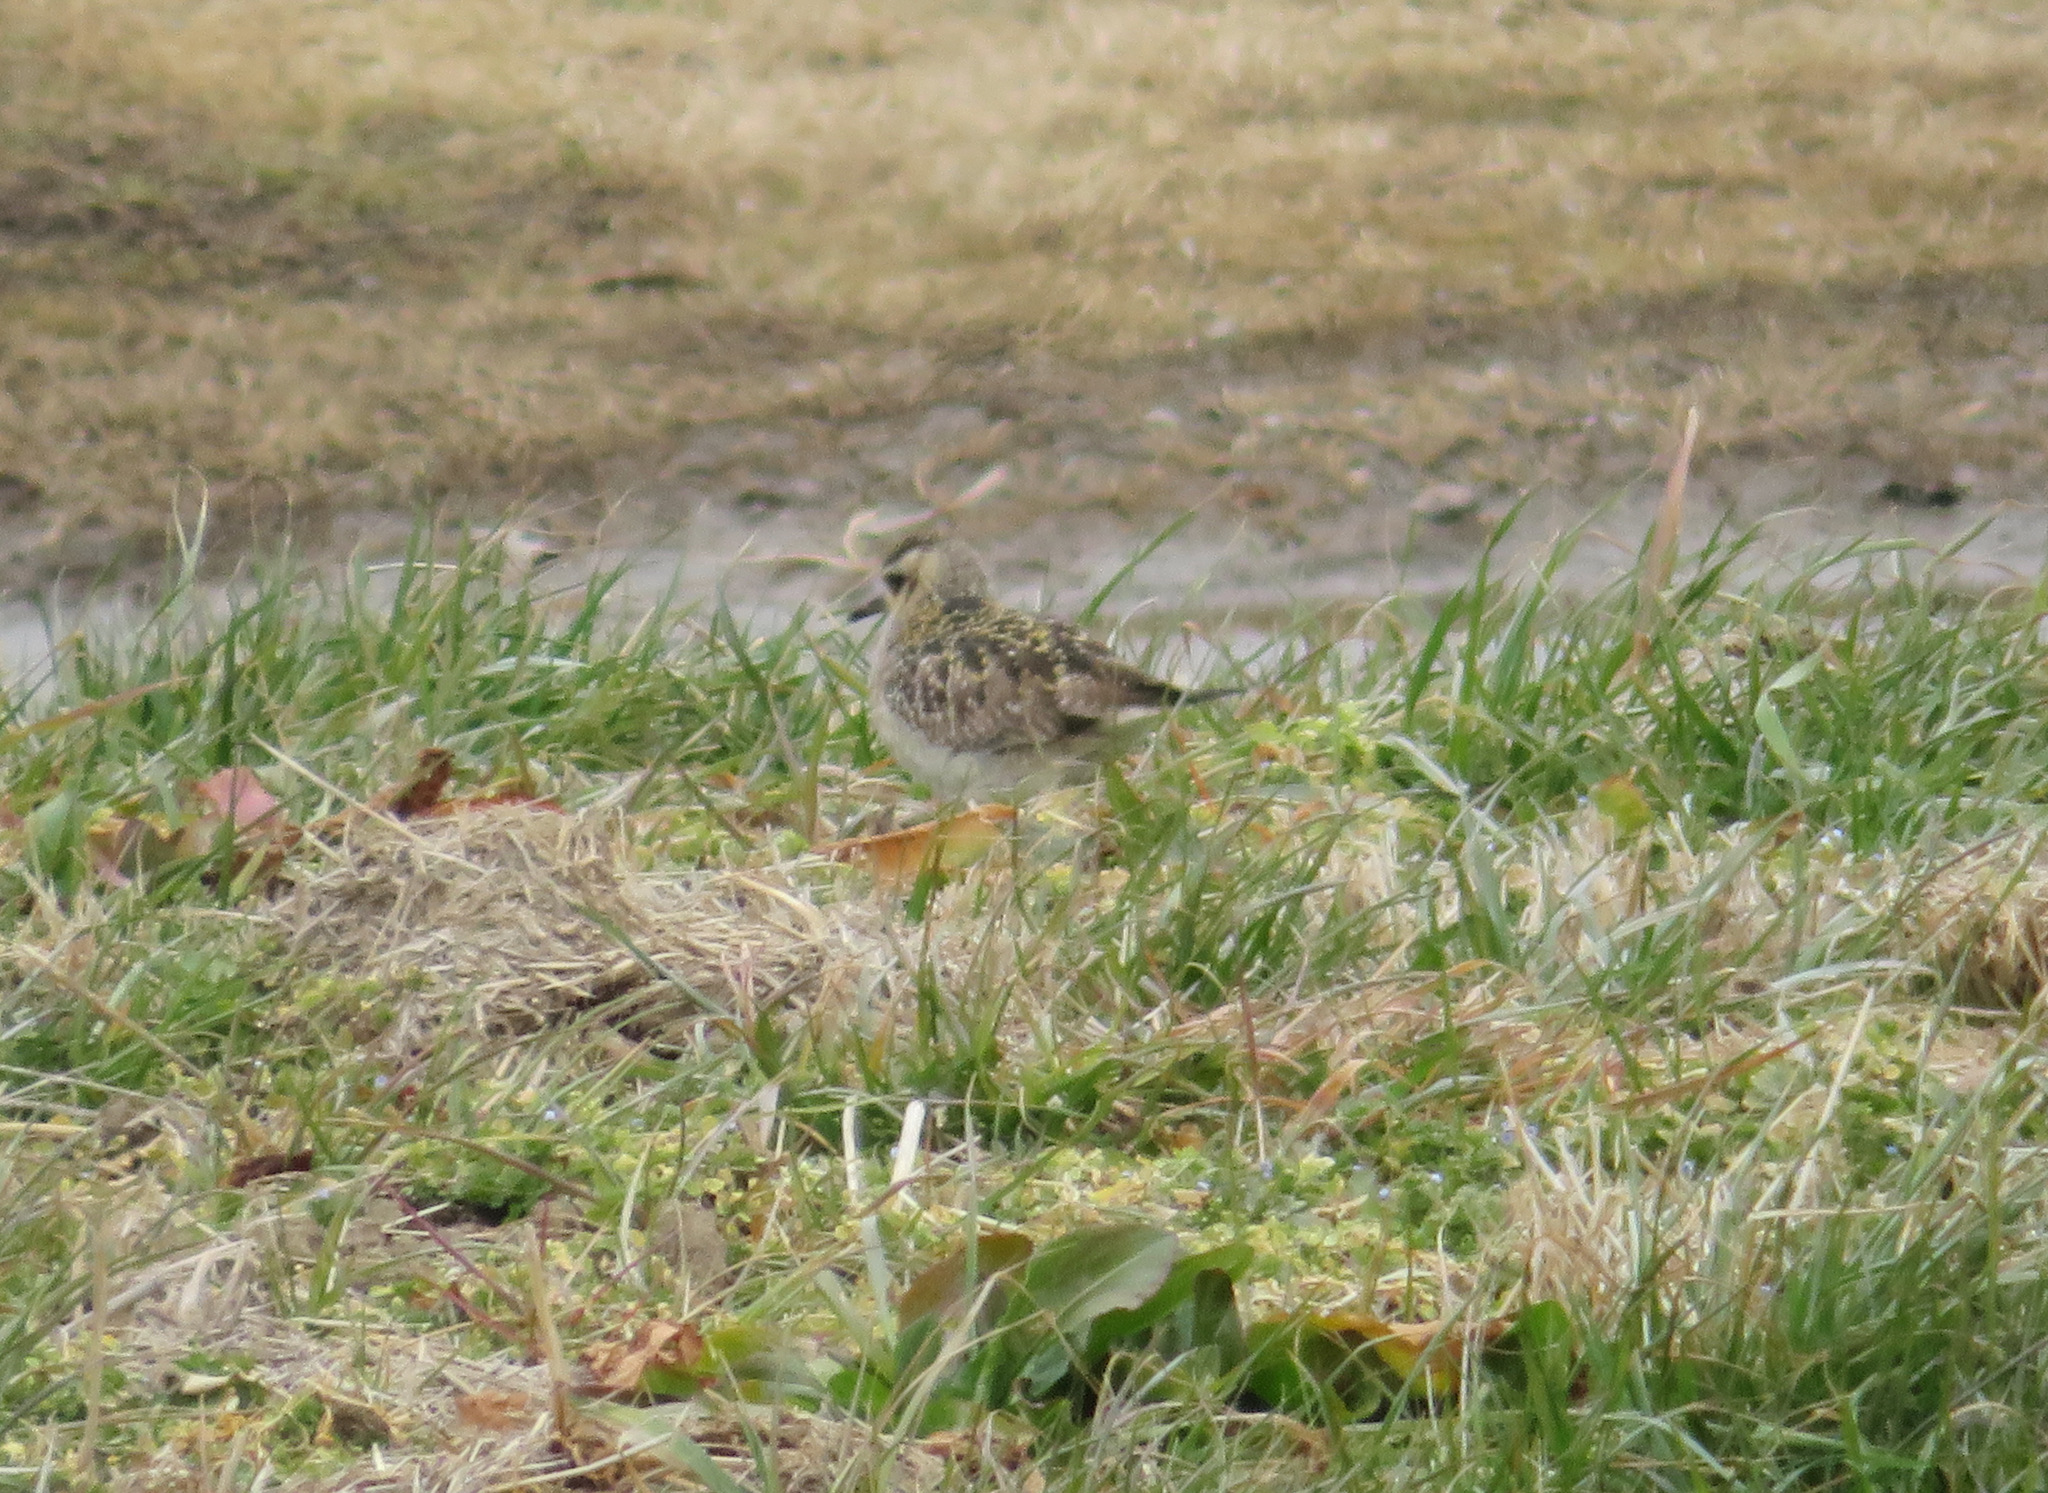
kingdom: Animalia
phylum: Chordata
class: Aves
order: Charadriiformes
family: Charadriidae
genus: Pluvialis
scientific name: Pluvialis fulva
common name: Pacific golden plover
